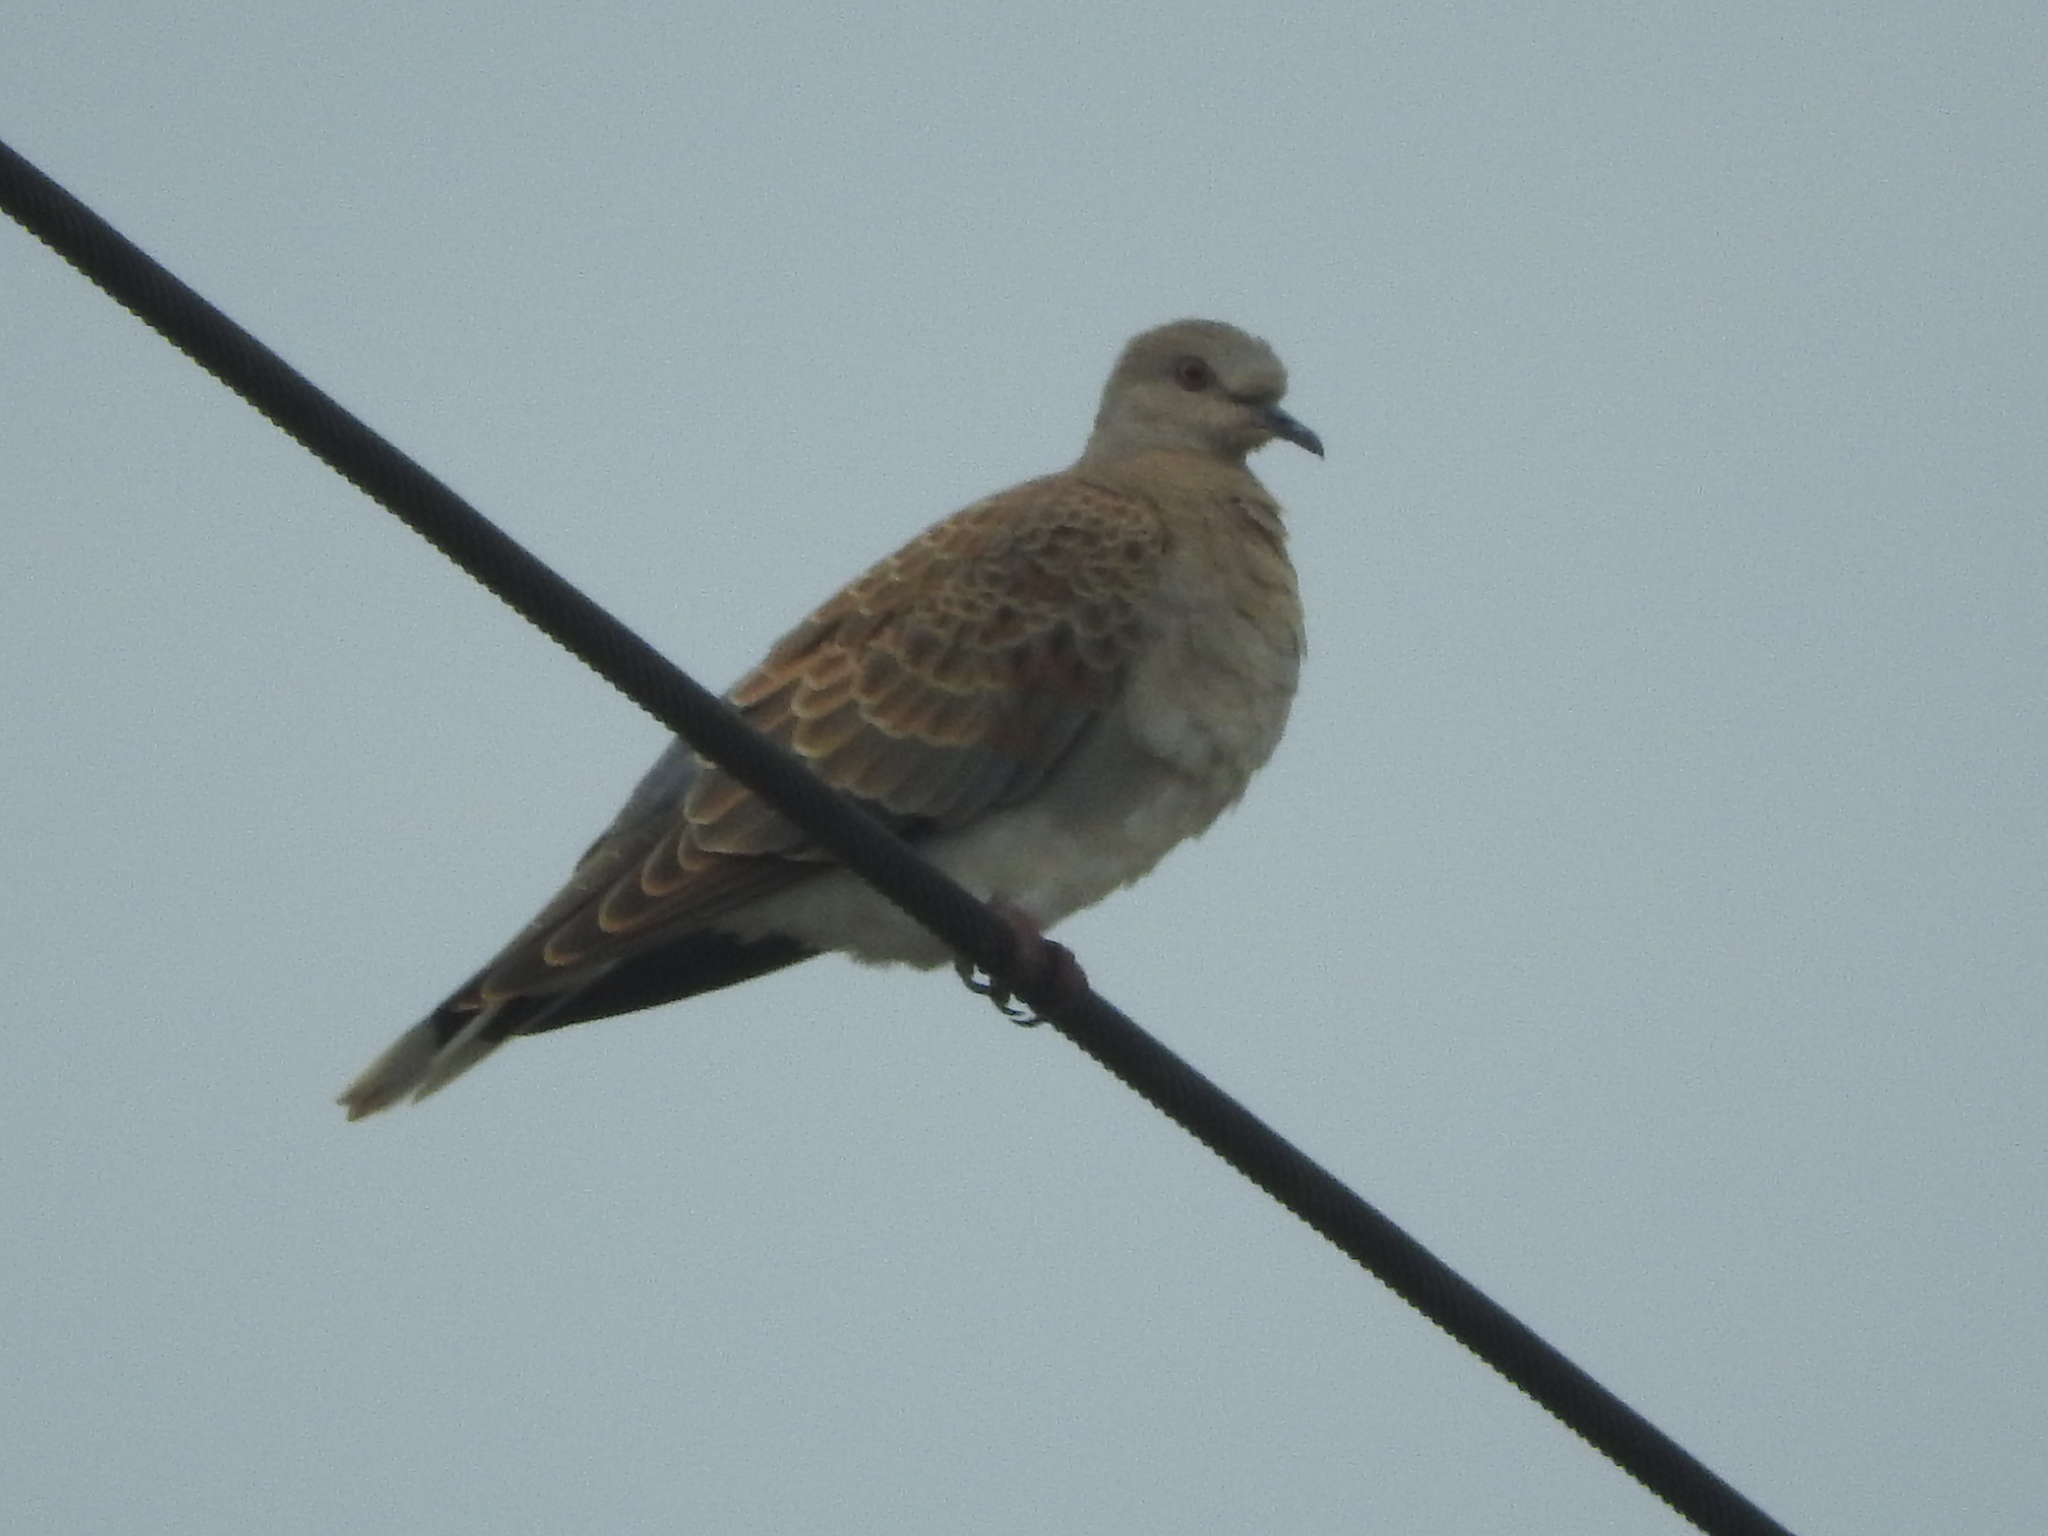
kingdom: Animalia
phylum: Chordata
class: Aves
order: Columbiformes
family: Columbidae
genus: Streptopelia
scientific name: Streptopelia turtur
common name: European turtle dove
